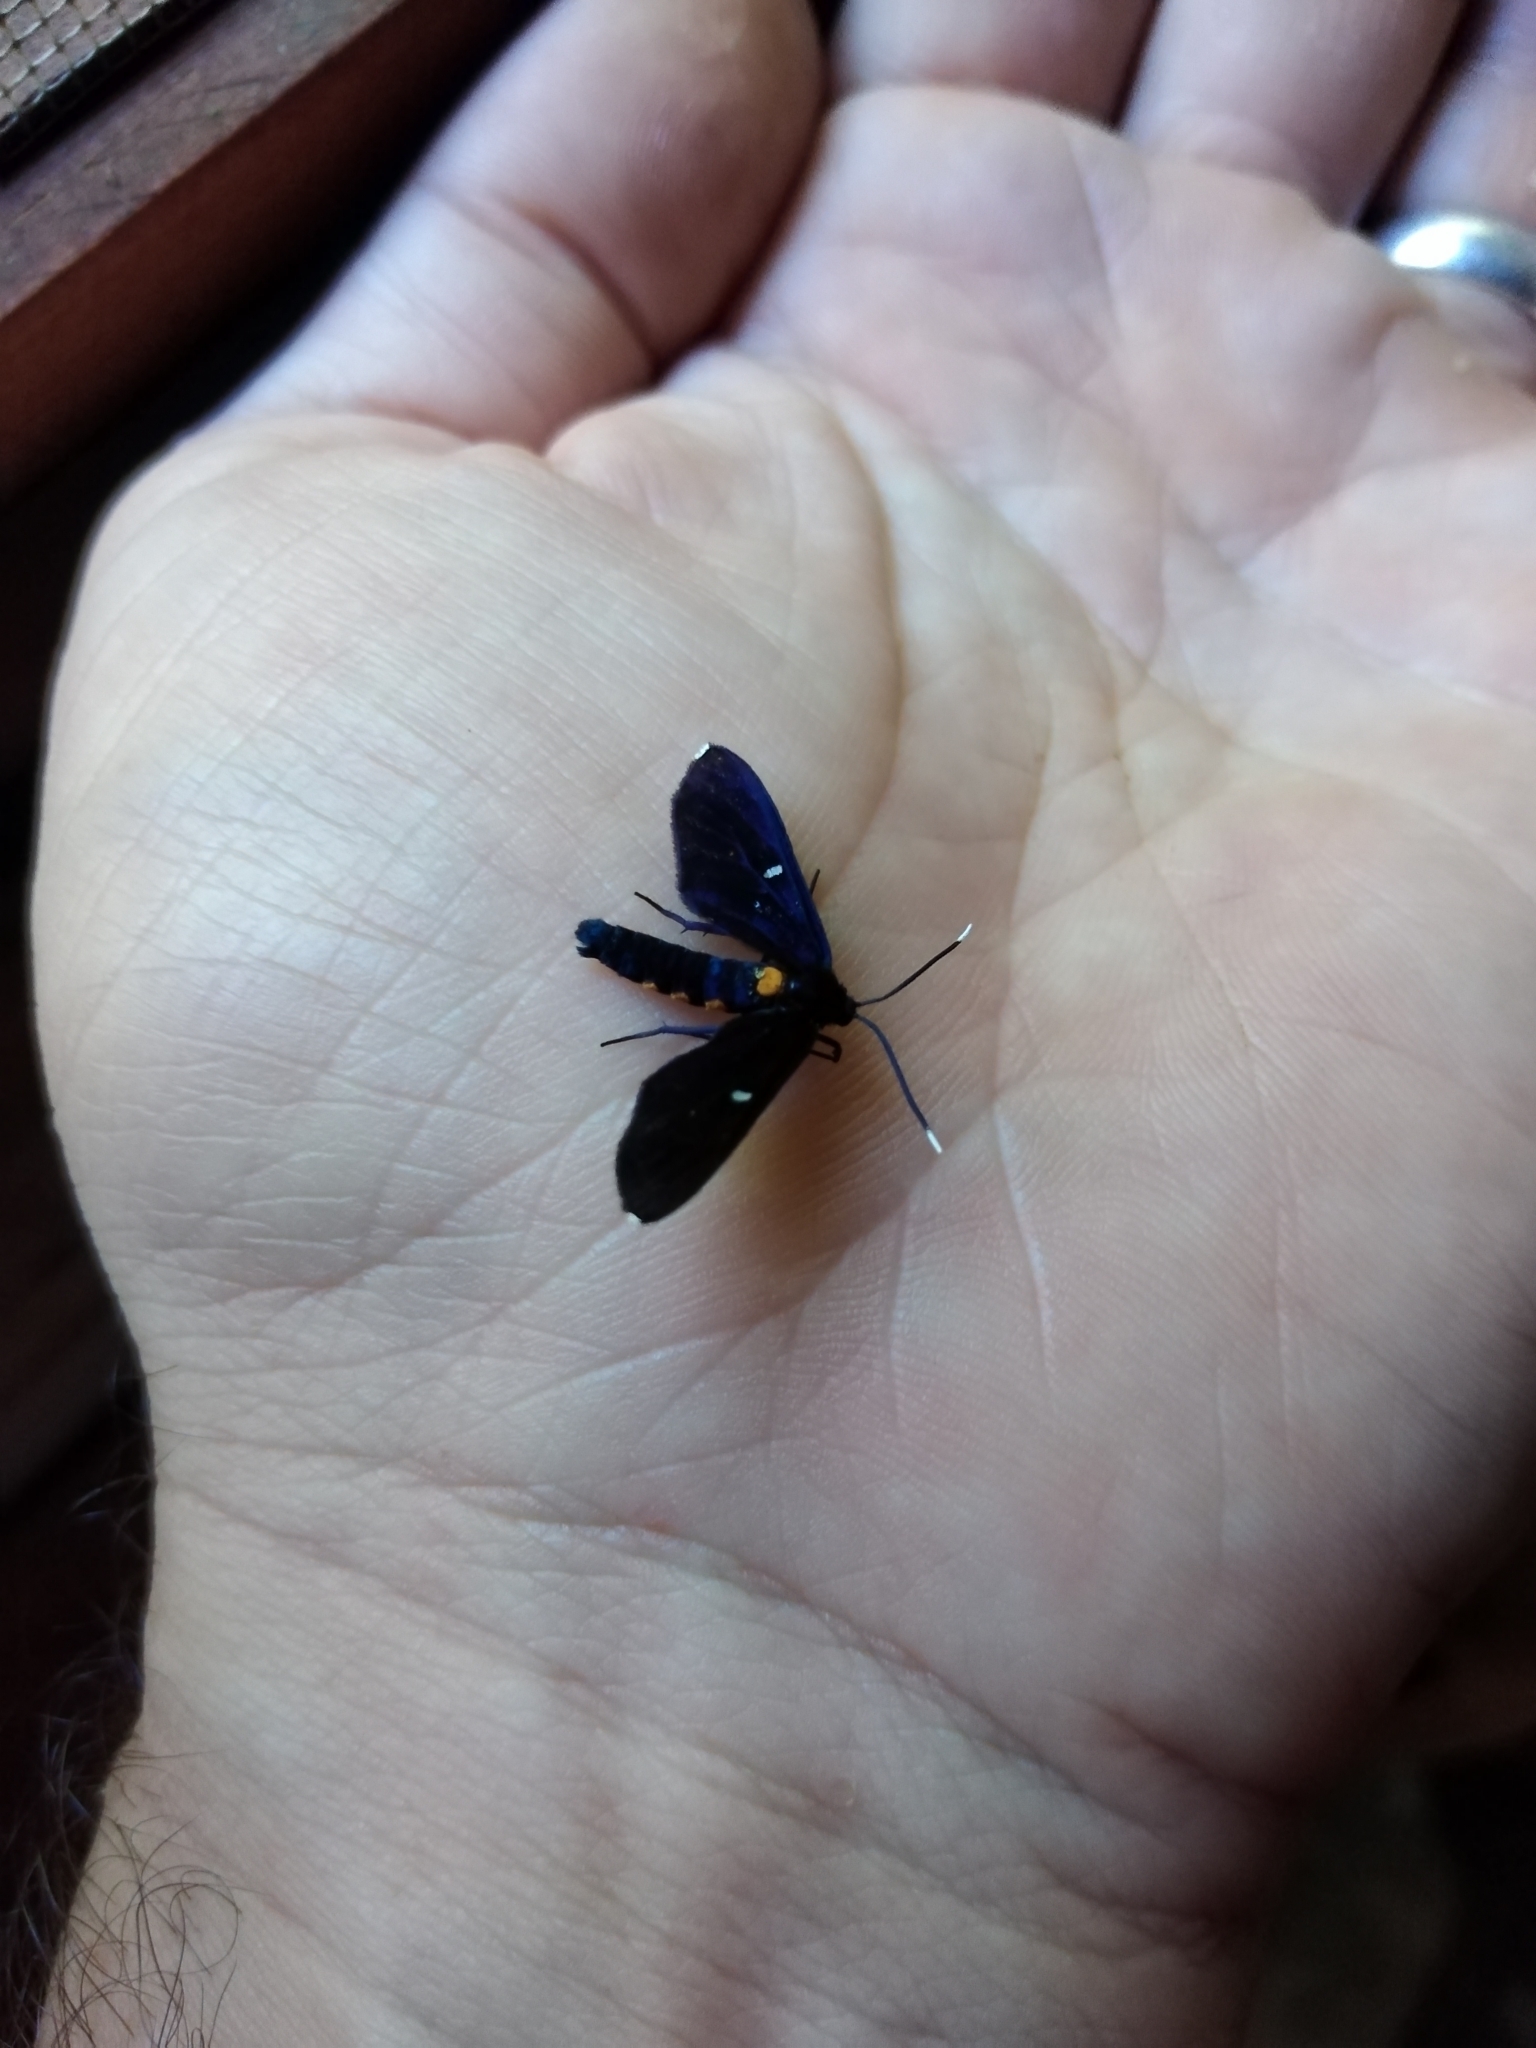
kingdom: Animalia
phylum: Arthropoda
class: Insecta
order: Lepidoptera
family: Erebidae
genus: Amata
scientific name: Amata simplex
